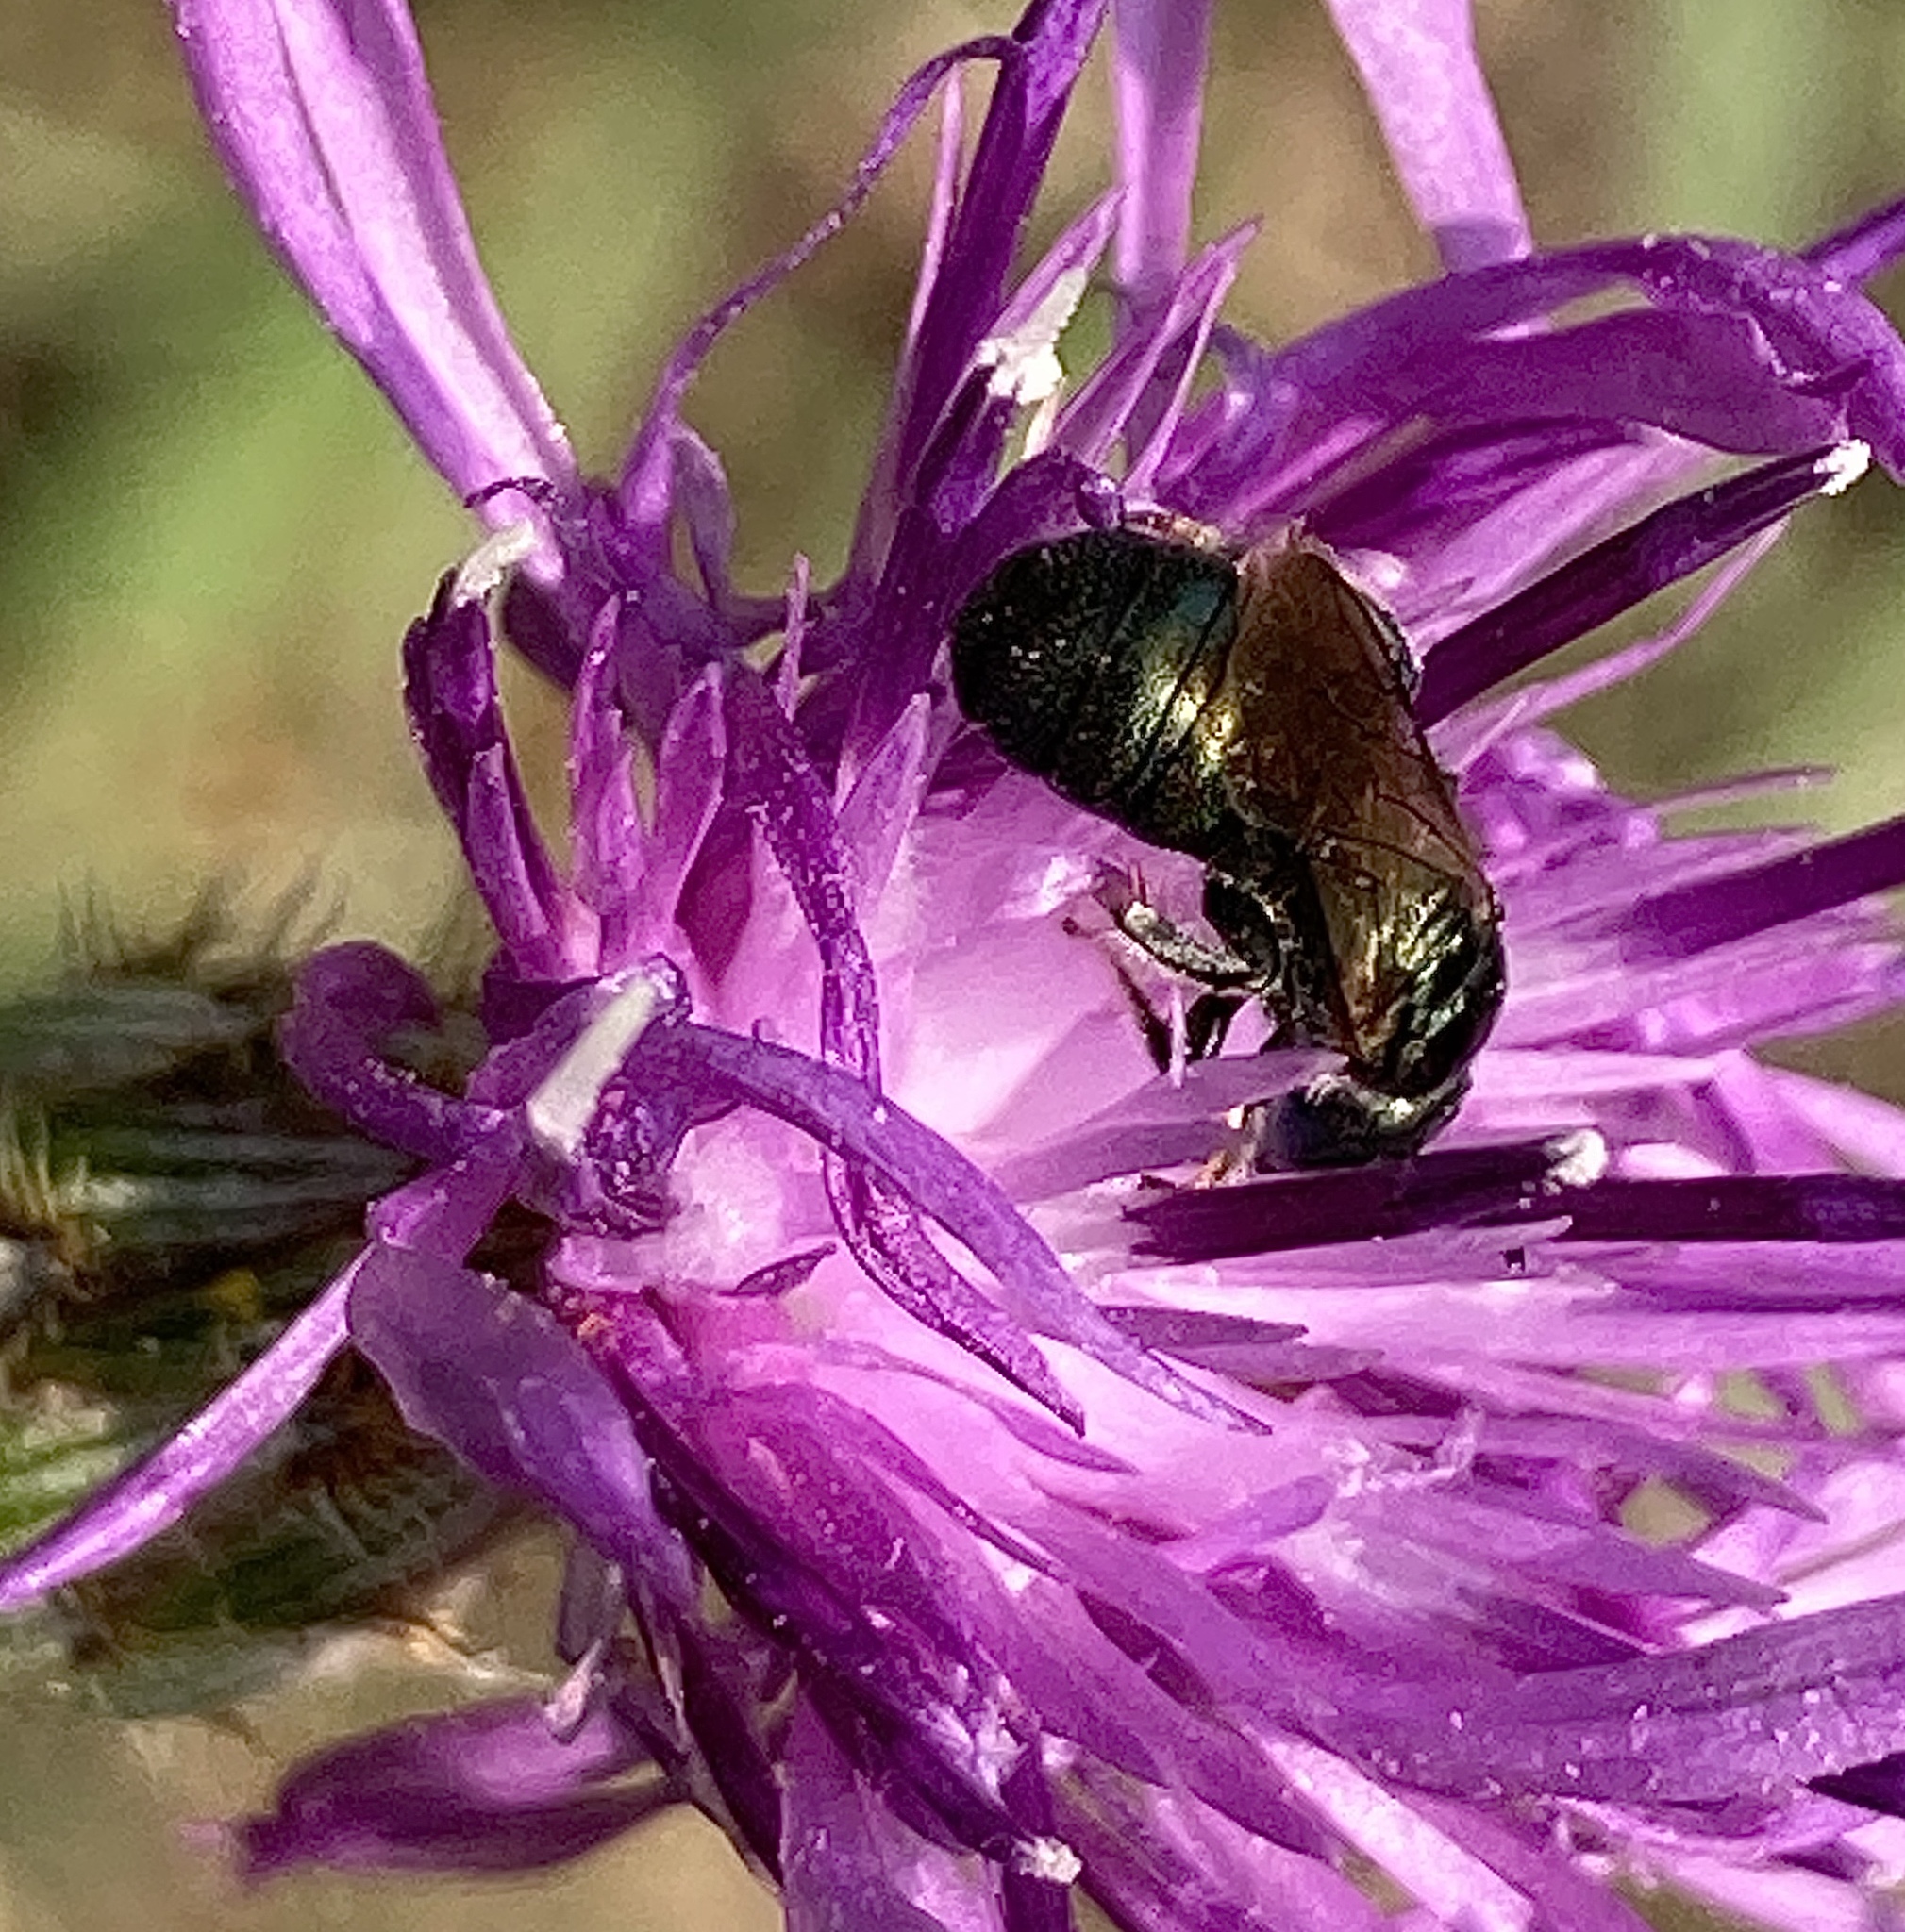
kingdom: Animalia
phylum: Arthropoda
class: Insecta
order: Hymenoptera
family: Apidae
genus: Zadontomerus
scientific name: Zadontomerus
